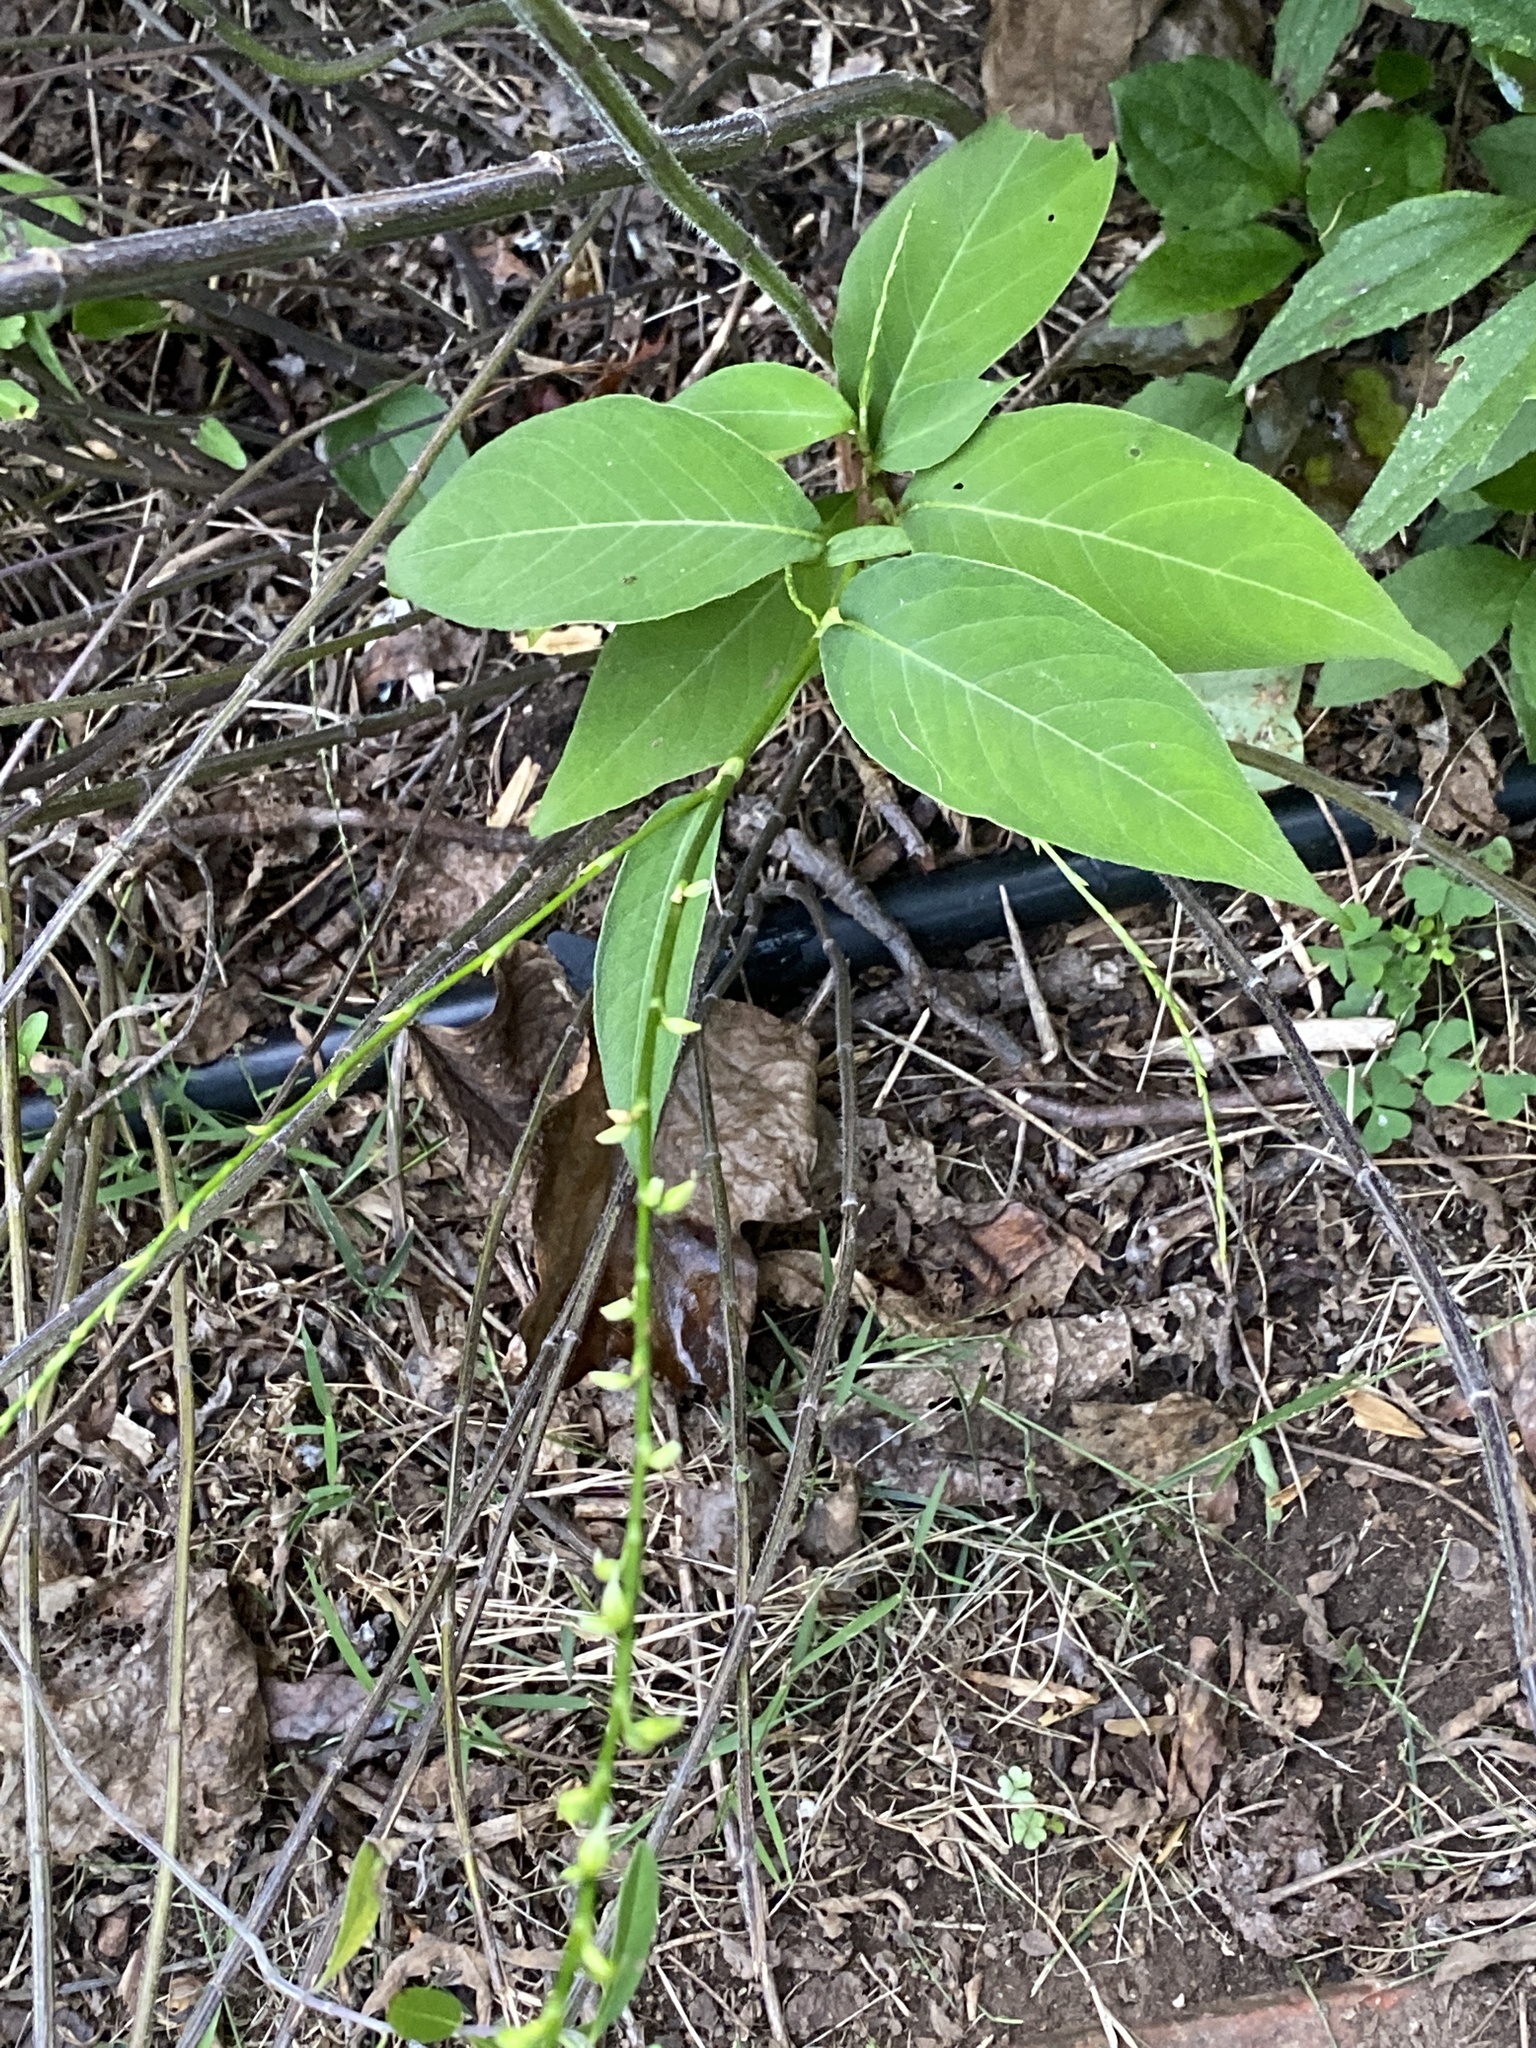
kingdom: Plantae
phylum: Tracheophyta
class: Magnoliopsida
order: Caryophyllales
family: Polygonaceae
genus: Persicaria
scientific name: Persicaria virginiana
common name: Jumpseed
